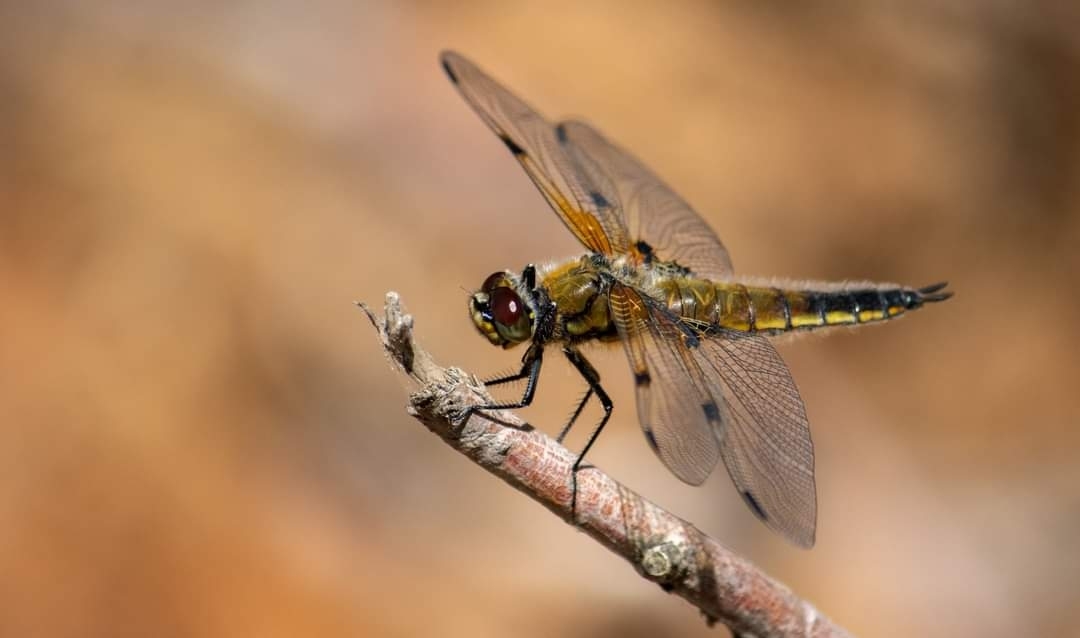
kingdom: Animalia
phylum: Arthropoda
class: Insecta
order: Odonata
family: Libellulidae
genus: Libellula
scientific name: Libellula quadrimaculata
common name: Four-spotted chaser
